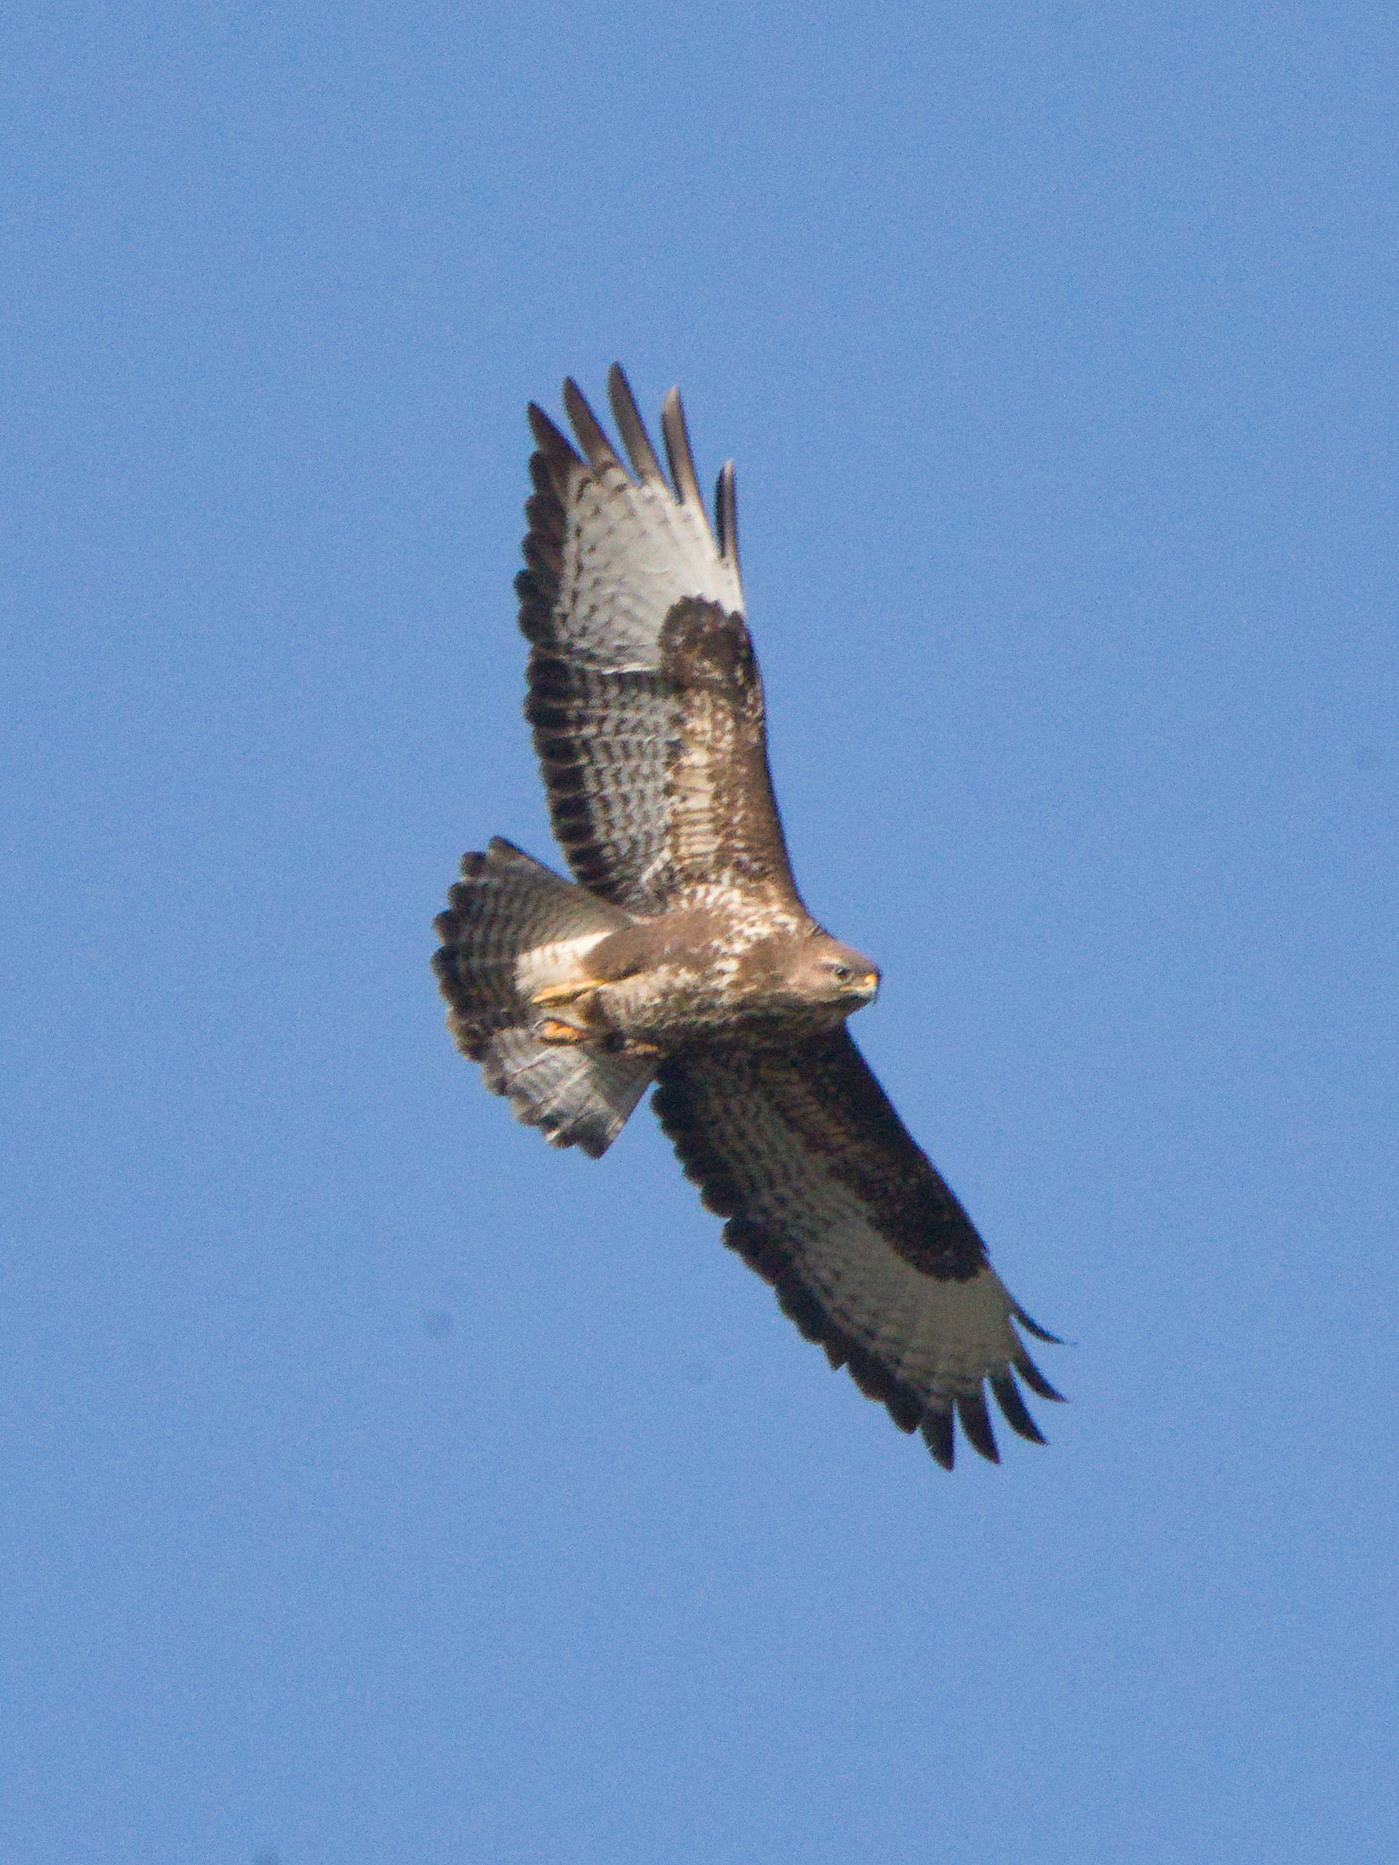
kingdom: Animalia
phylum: Chordata
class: Aves
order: Accipitriformes
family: Accipitridae
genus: Buteo
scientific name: Buteo buteo
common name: Common buzzard
